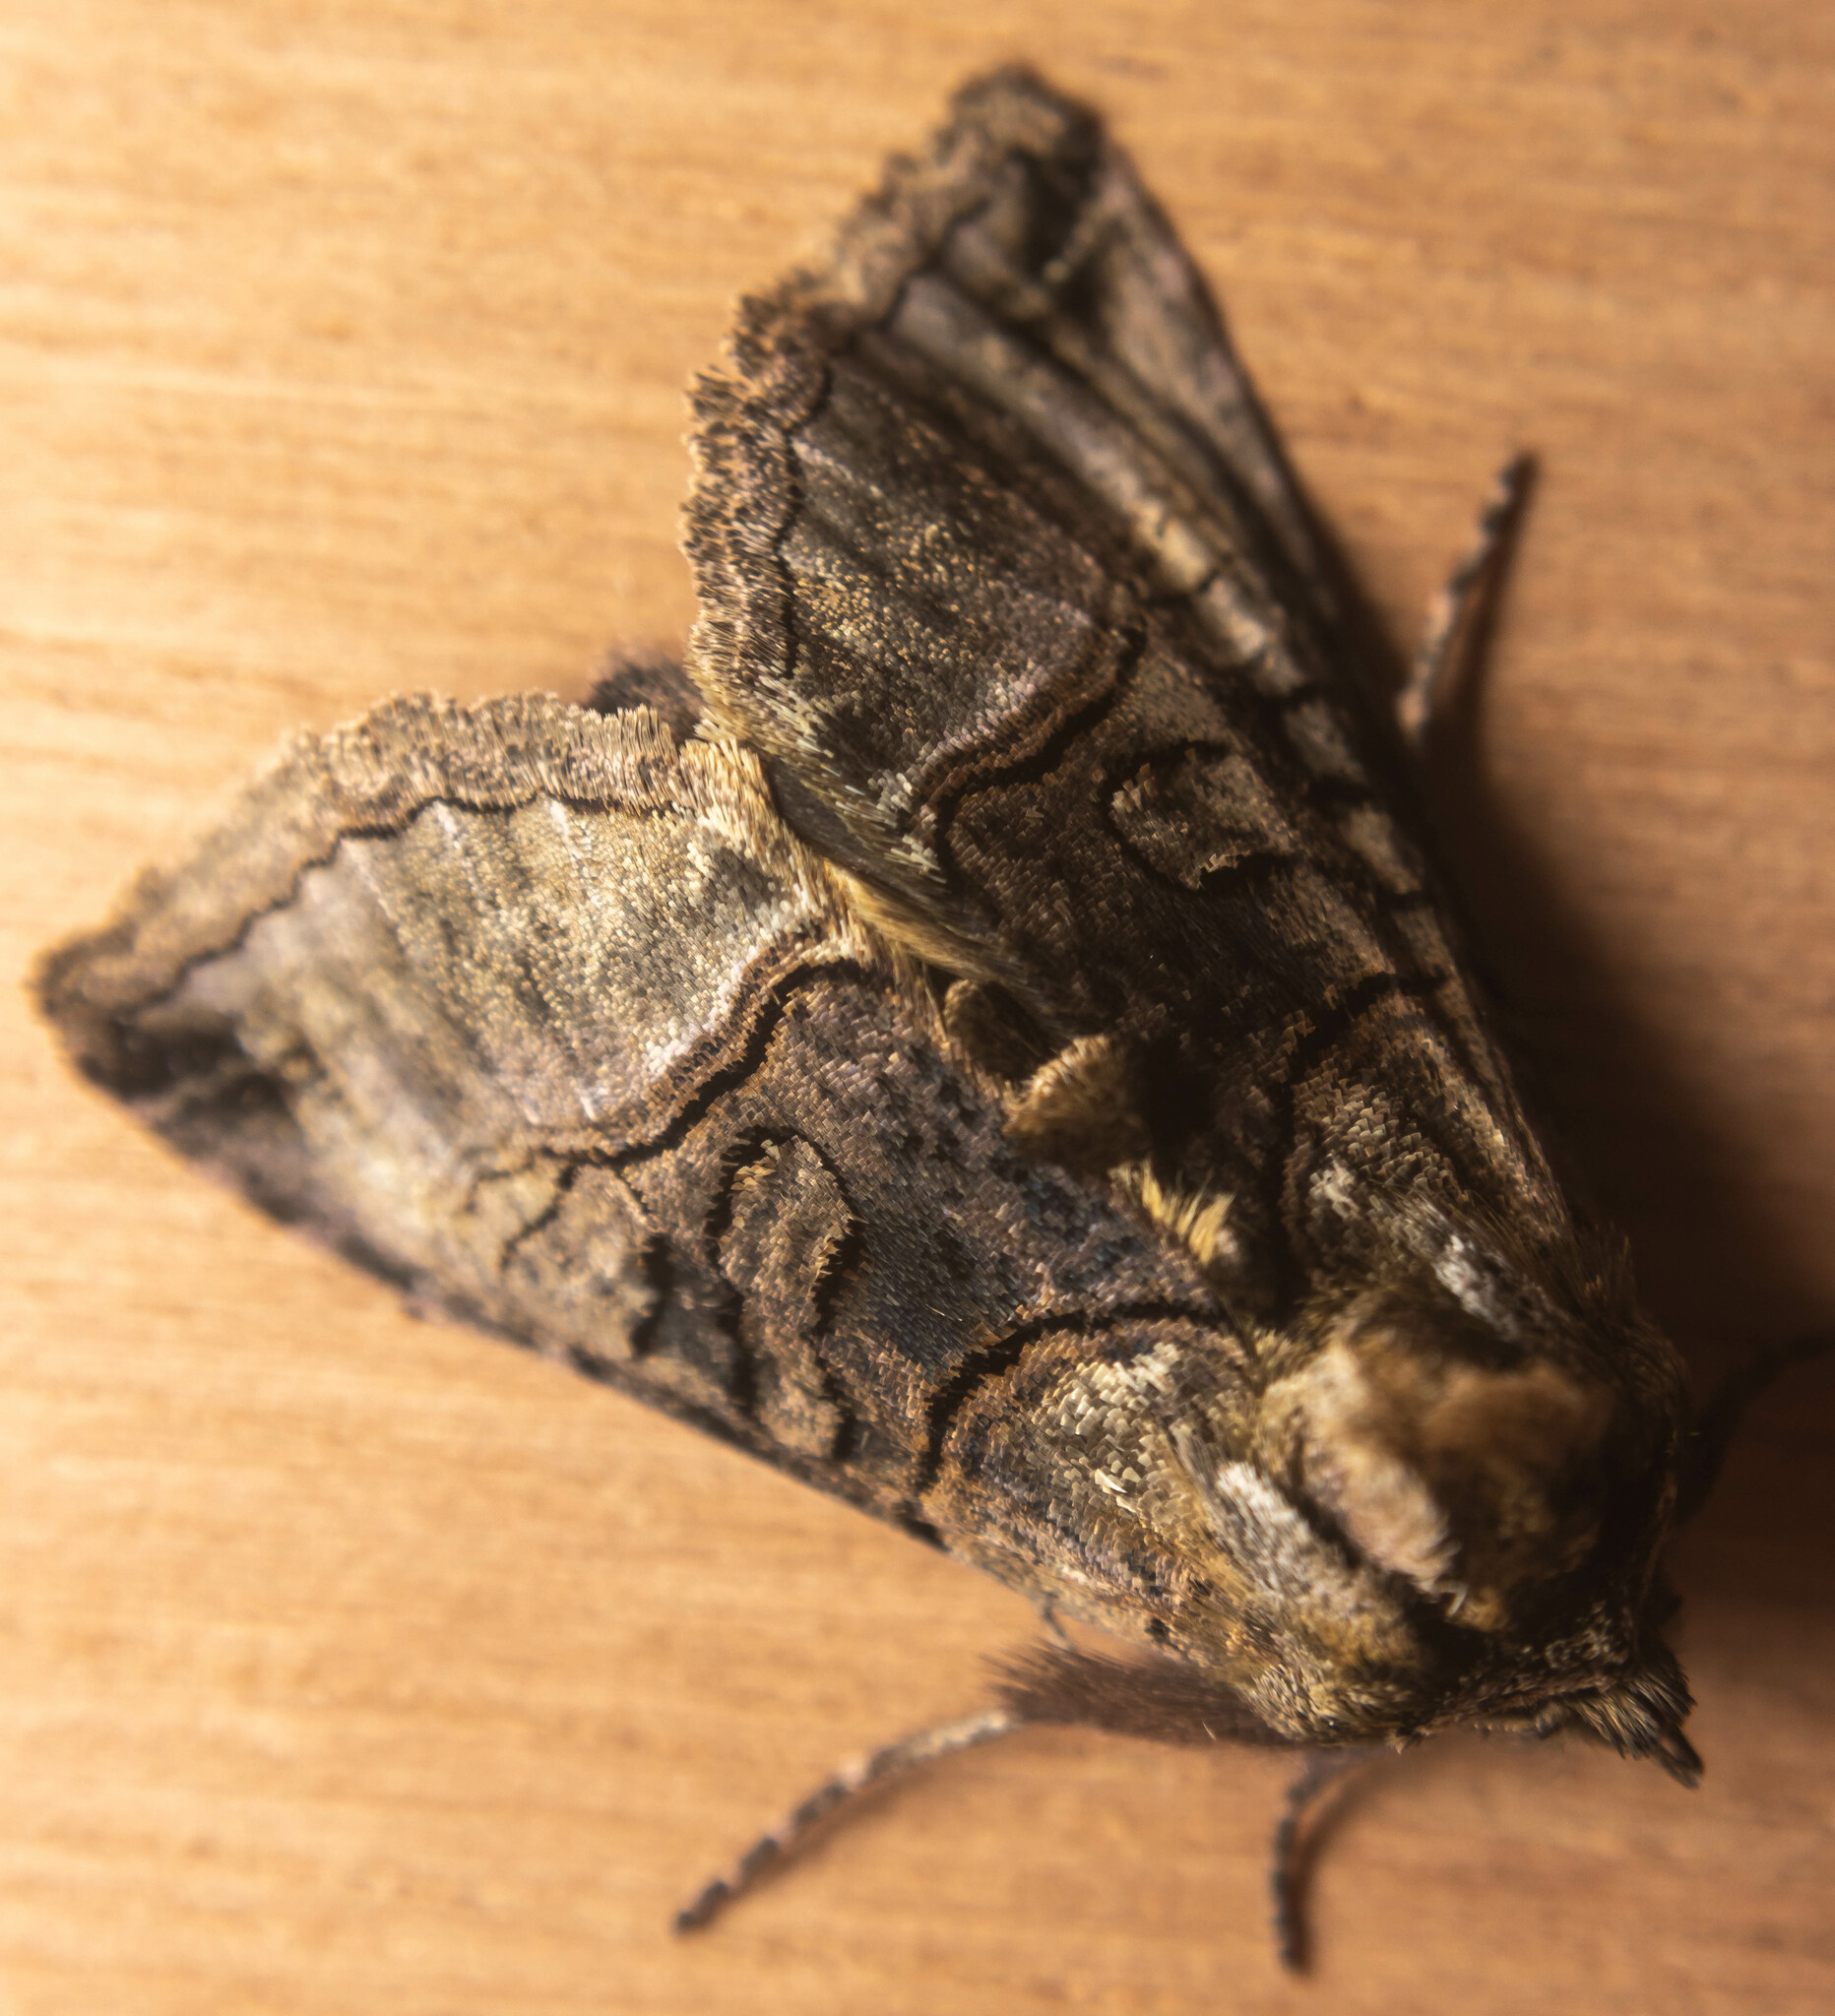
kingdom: Animalia
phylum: Arthropoda
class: Insecta
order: Lepidoptera
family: Noctuidae
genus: Abrostola
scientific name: Abrostola tripartita
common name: Spectacle
